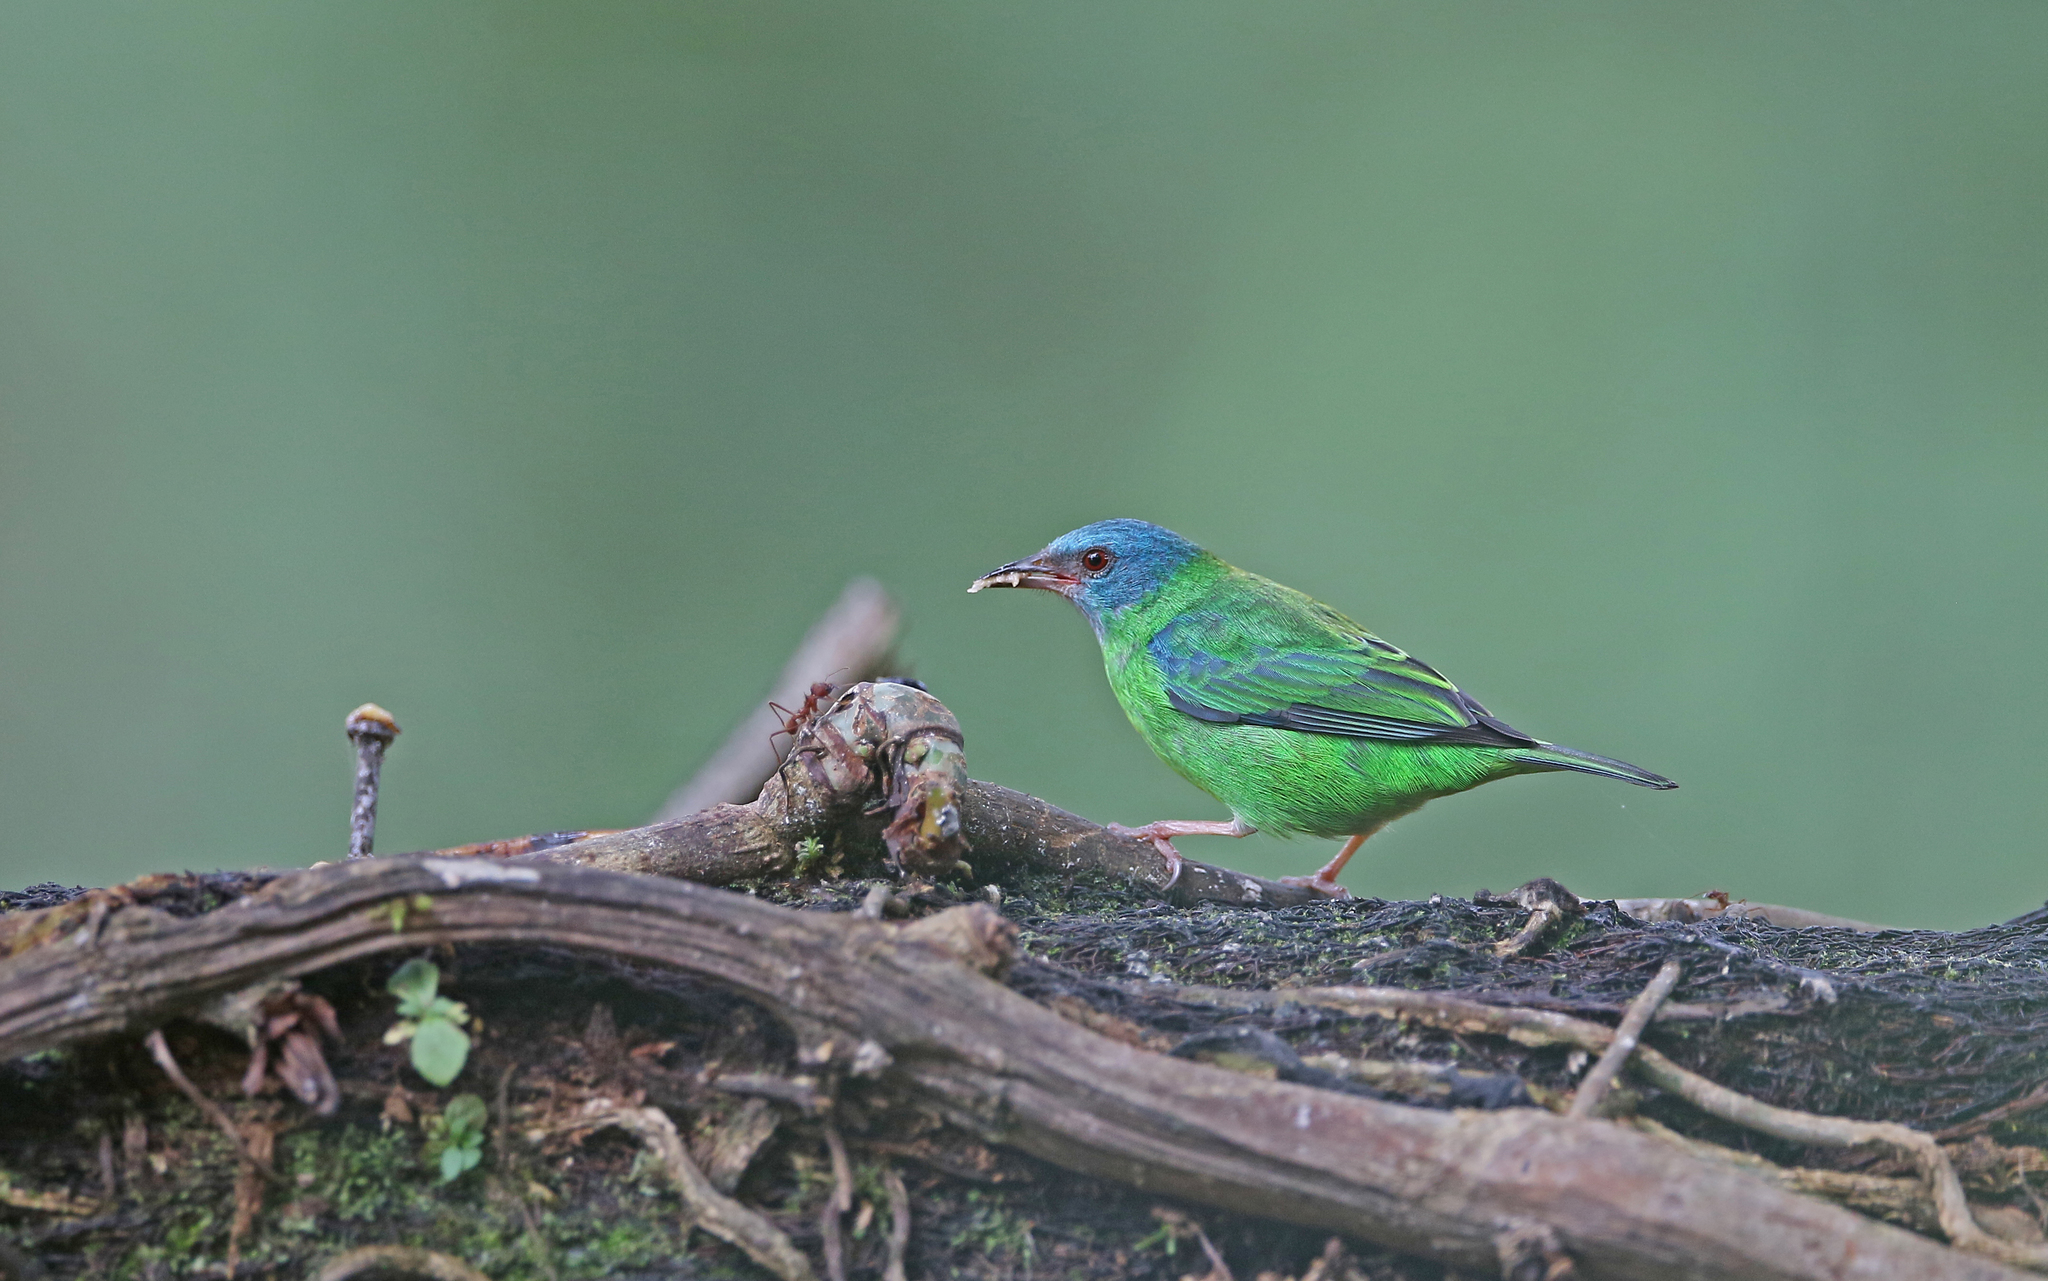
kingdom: Animalia
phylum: Chordata
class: Aves
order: Passeriformes
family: Thraupidae
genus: Dacnis
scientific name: Dacnis cayana
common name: Blue dacnis
